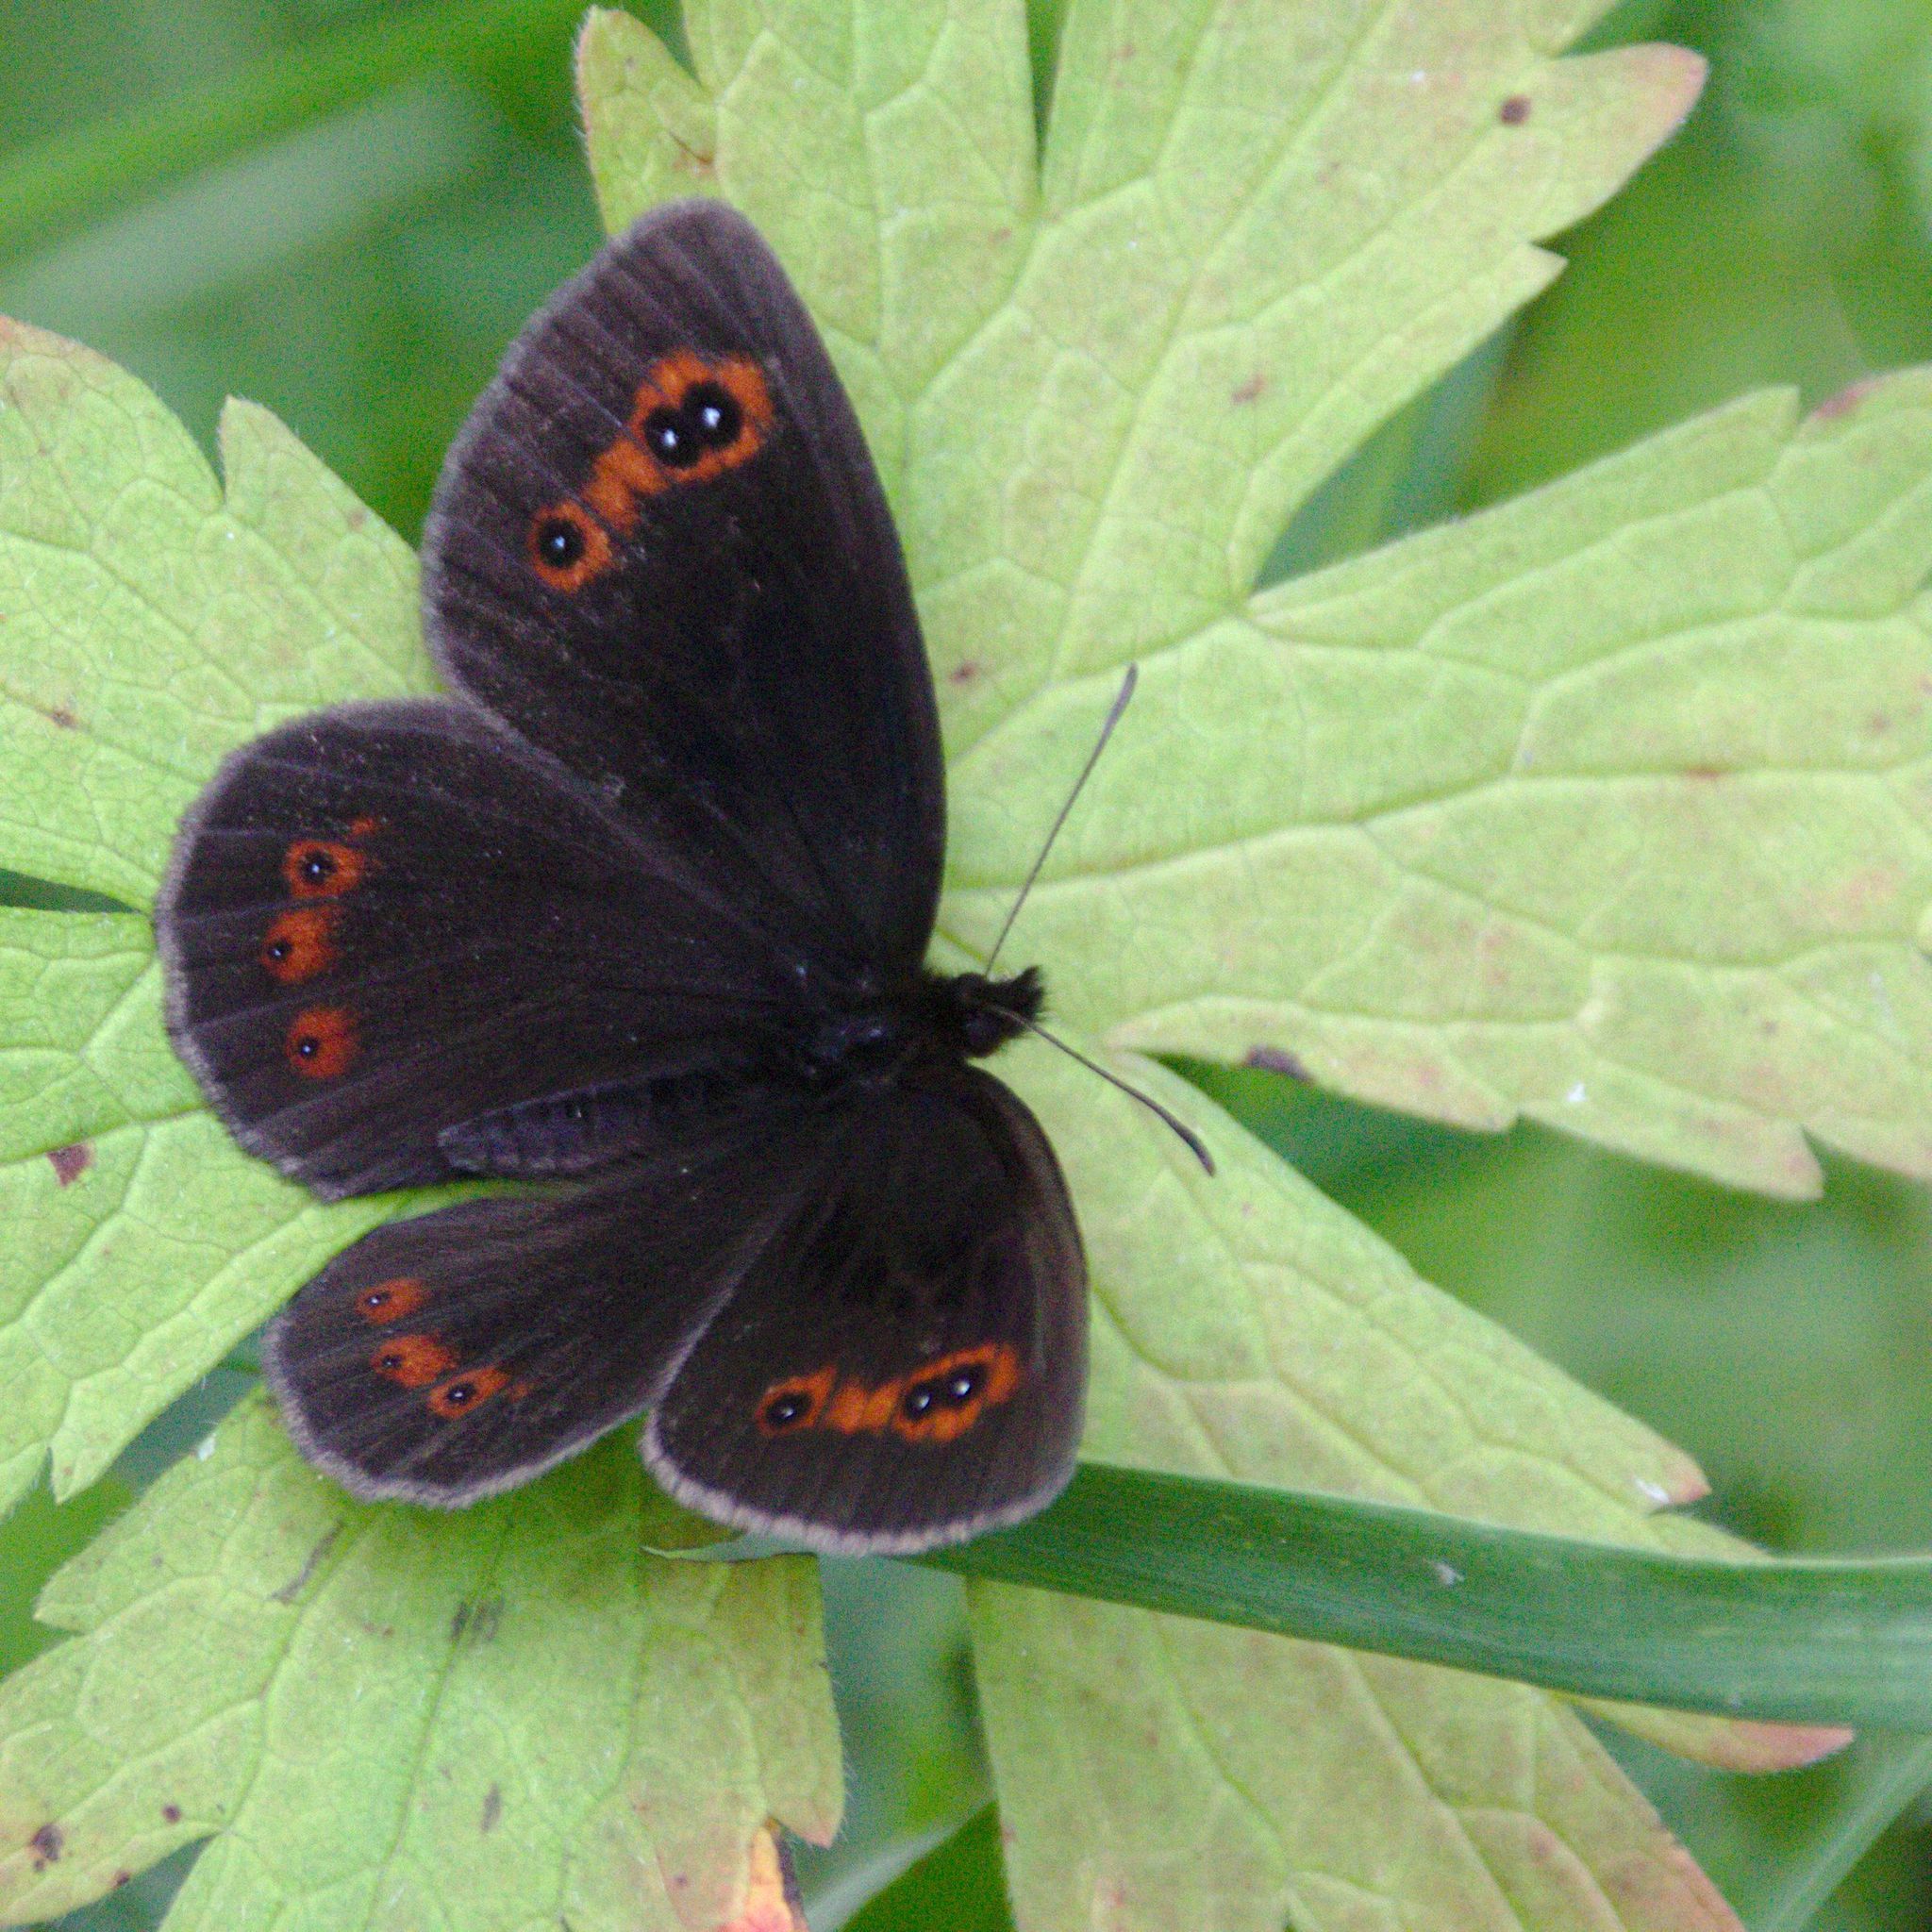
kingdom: Animalia
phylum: Arthropoda
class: Insecta
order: Lepidoptera
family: Nymphalidae
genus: Erebia
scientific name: Erebia aethiops
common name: Scotch argus
